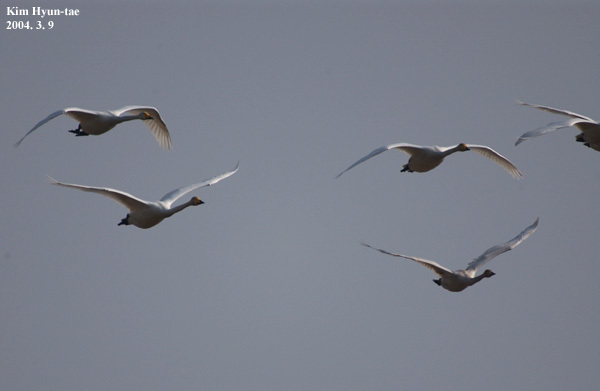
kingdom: Animalia
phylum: Chordata
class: Aves
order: Anseriformes
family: Anatidae
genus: Cygnus
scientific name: Cygnus cygnus
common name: Whooper swan
